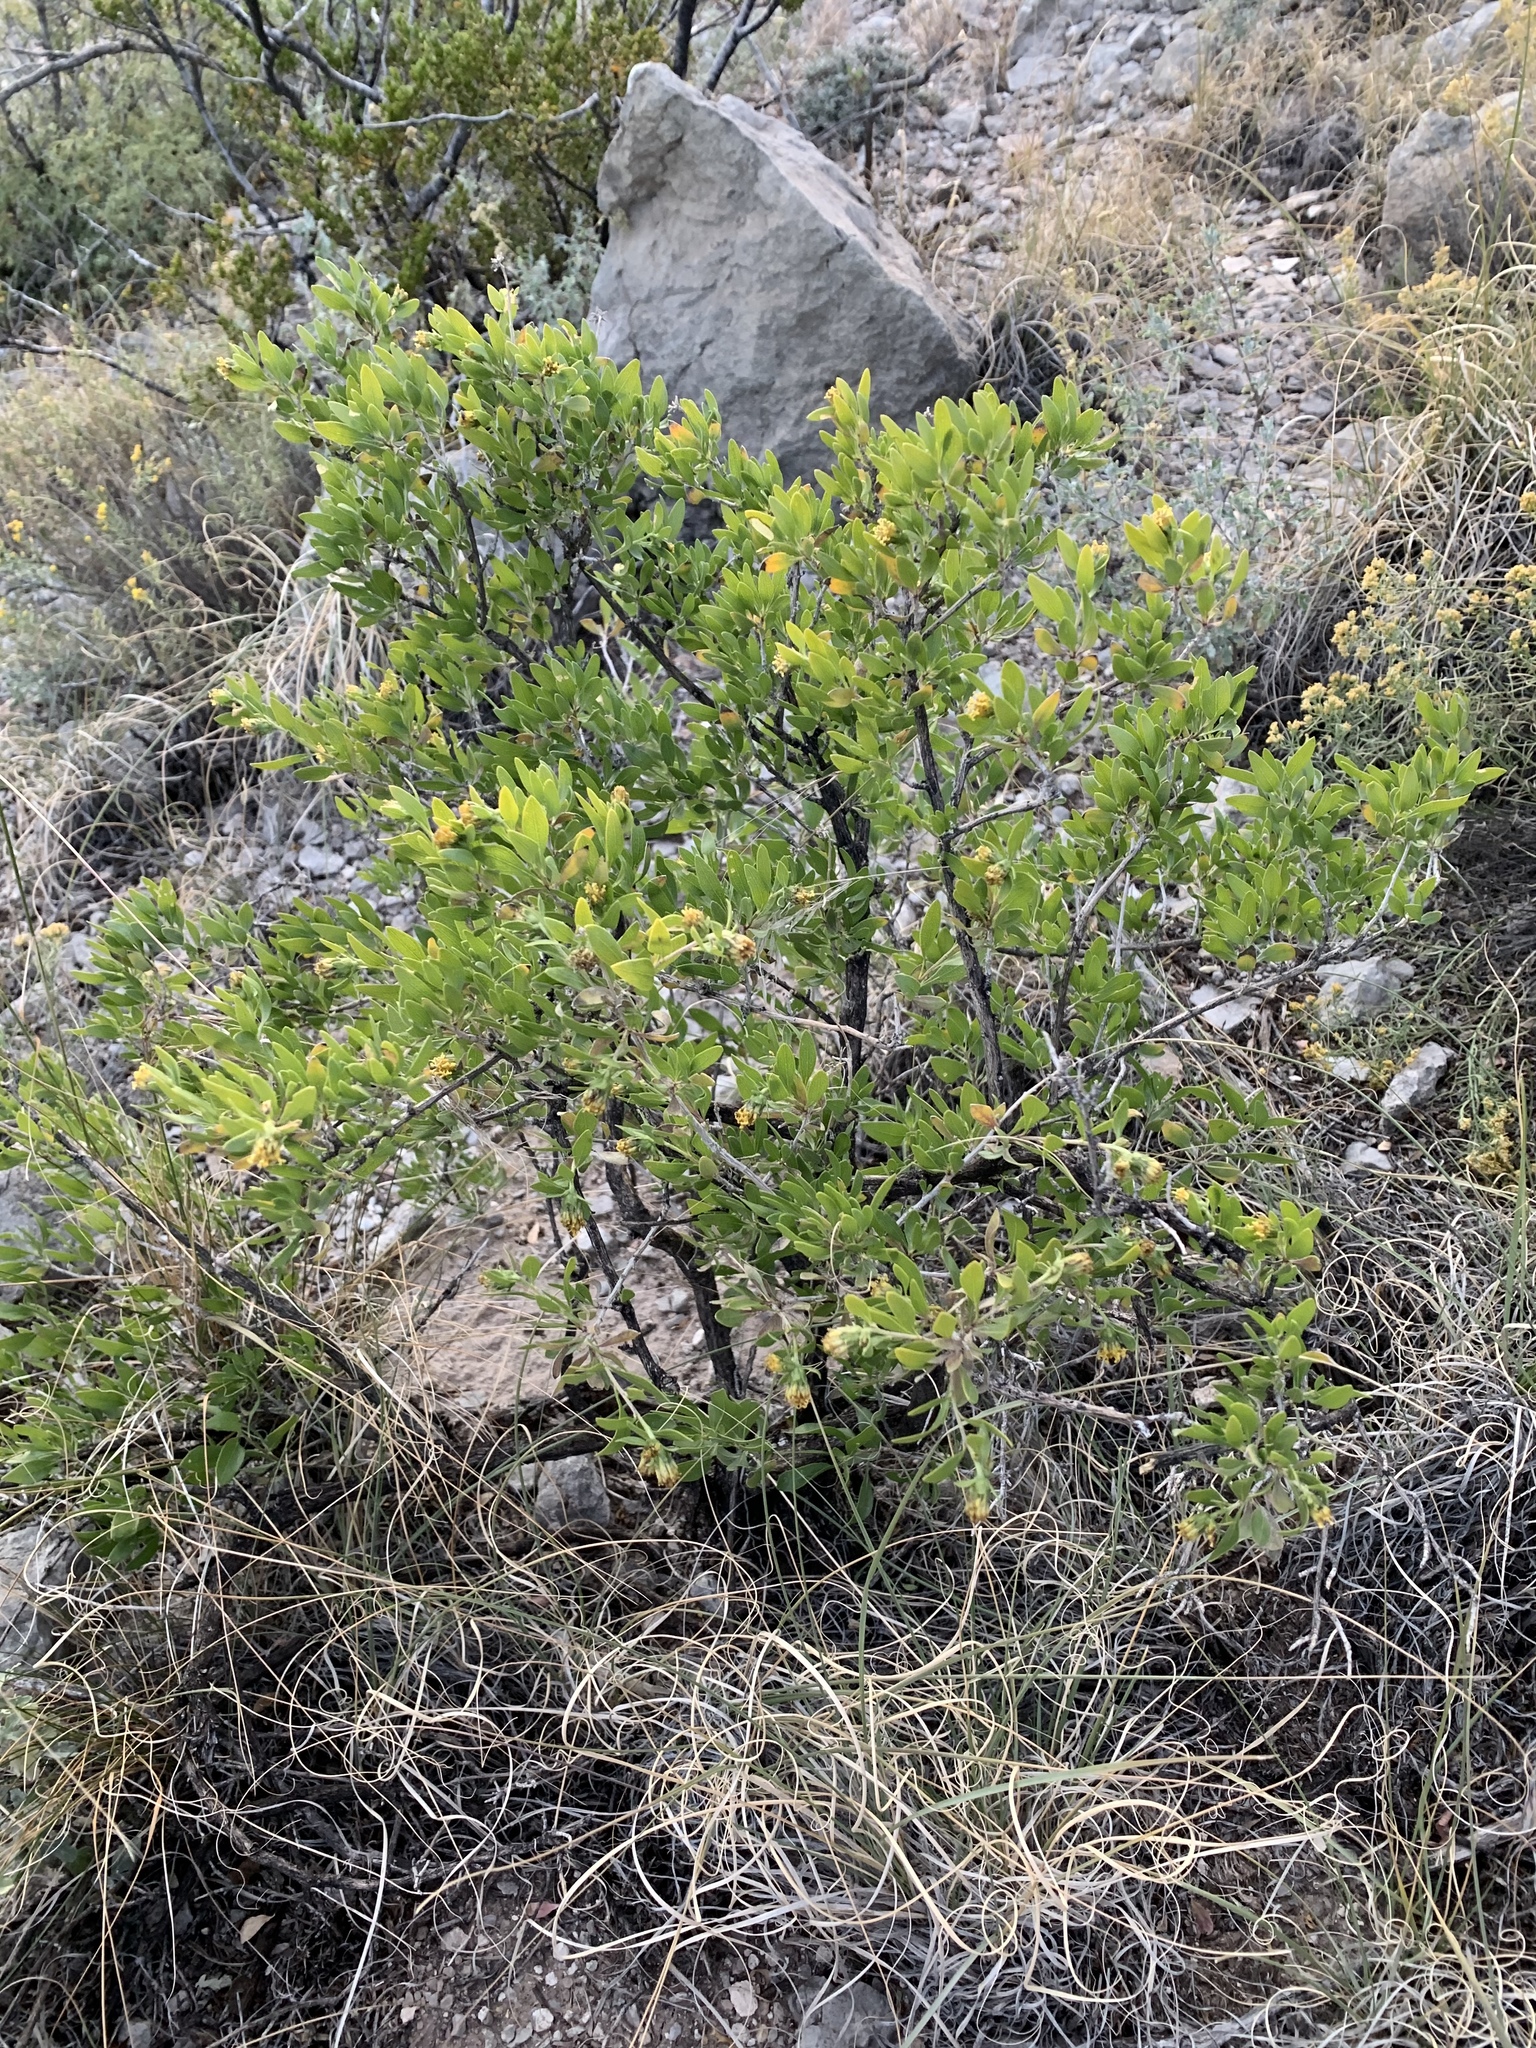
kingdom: Plantae
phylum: Tracheophyta
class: Magnoliopsida
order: Asterales
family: Asteraceae
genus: Flourensia
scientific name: Flourensia cernua
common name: Varnishbush
